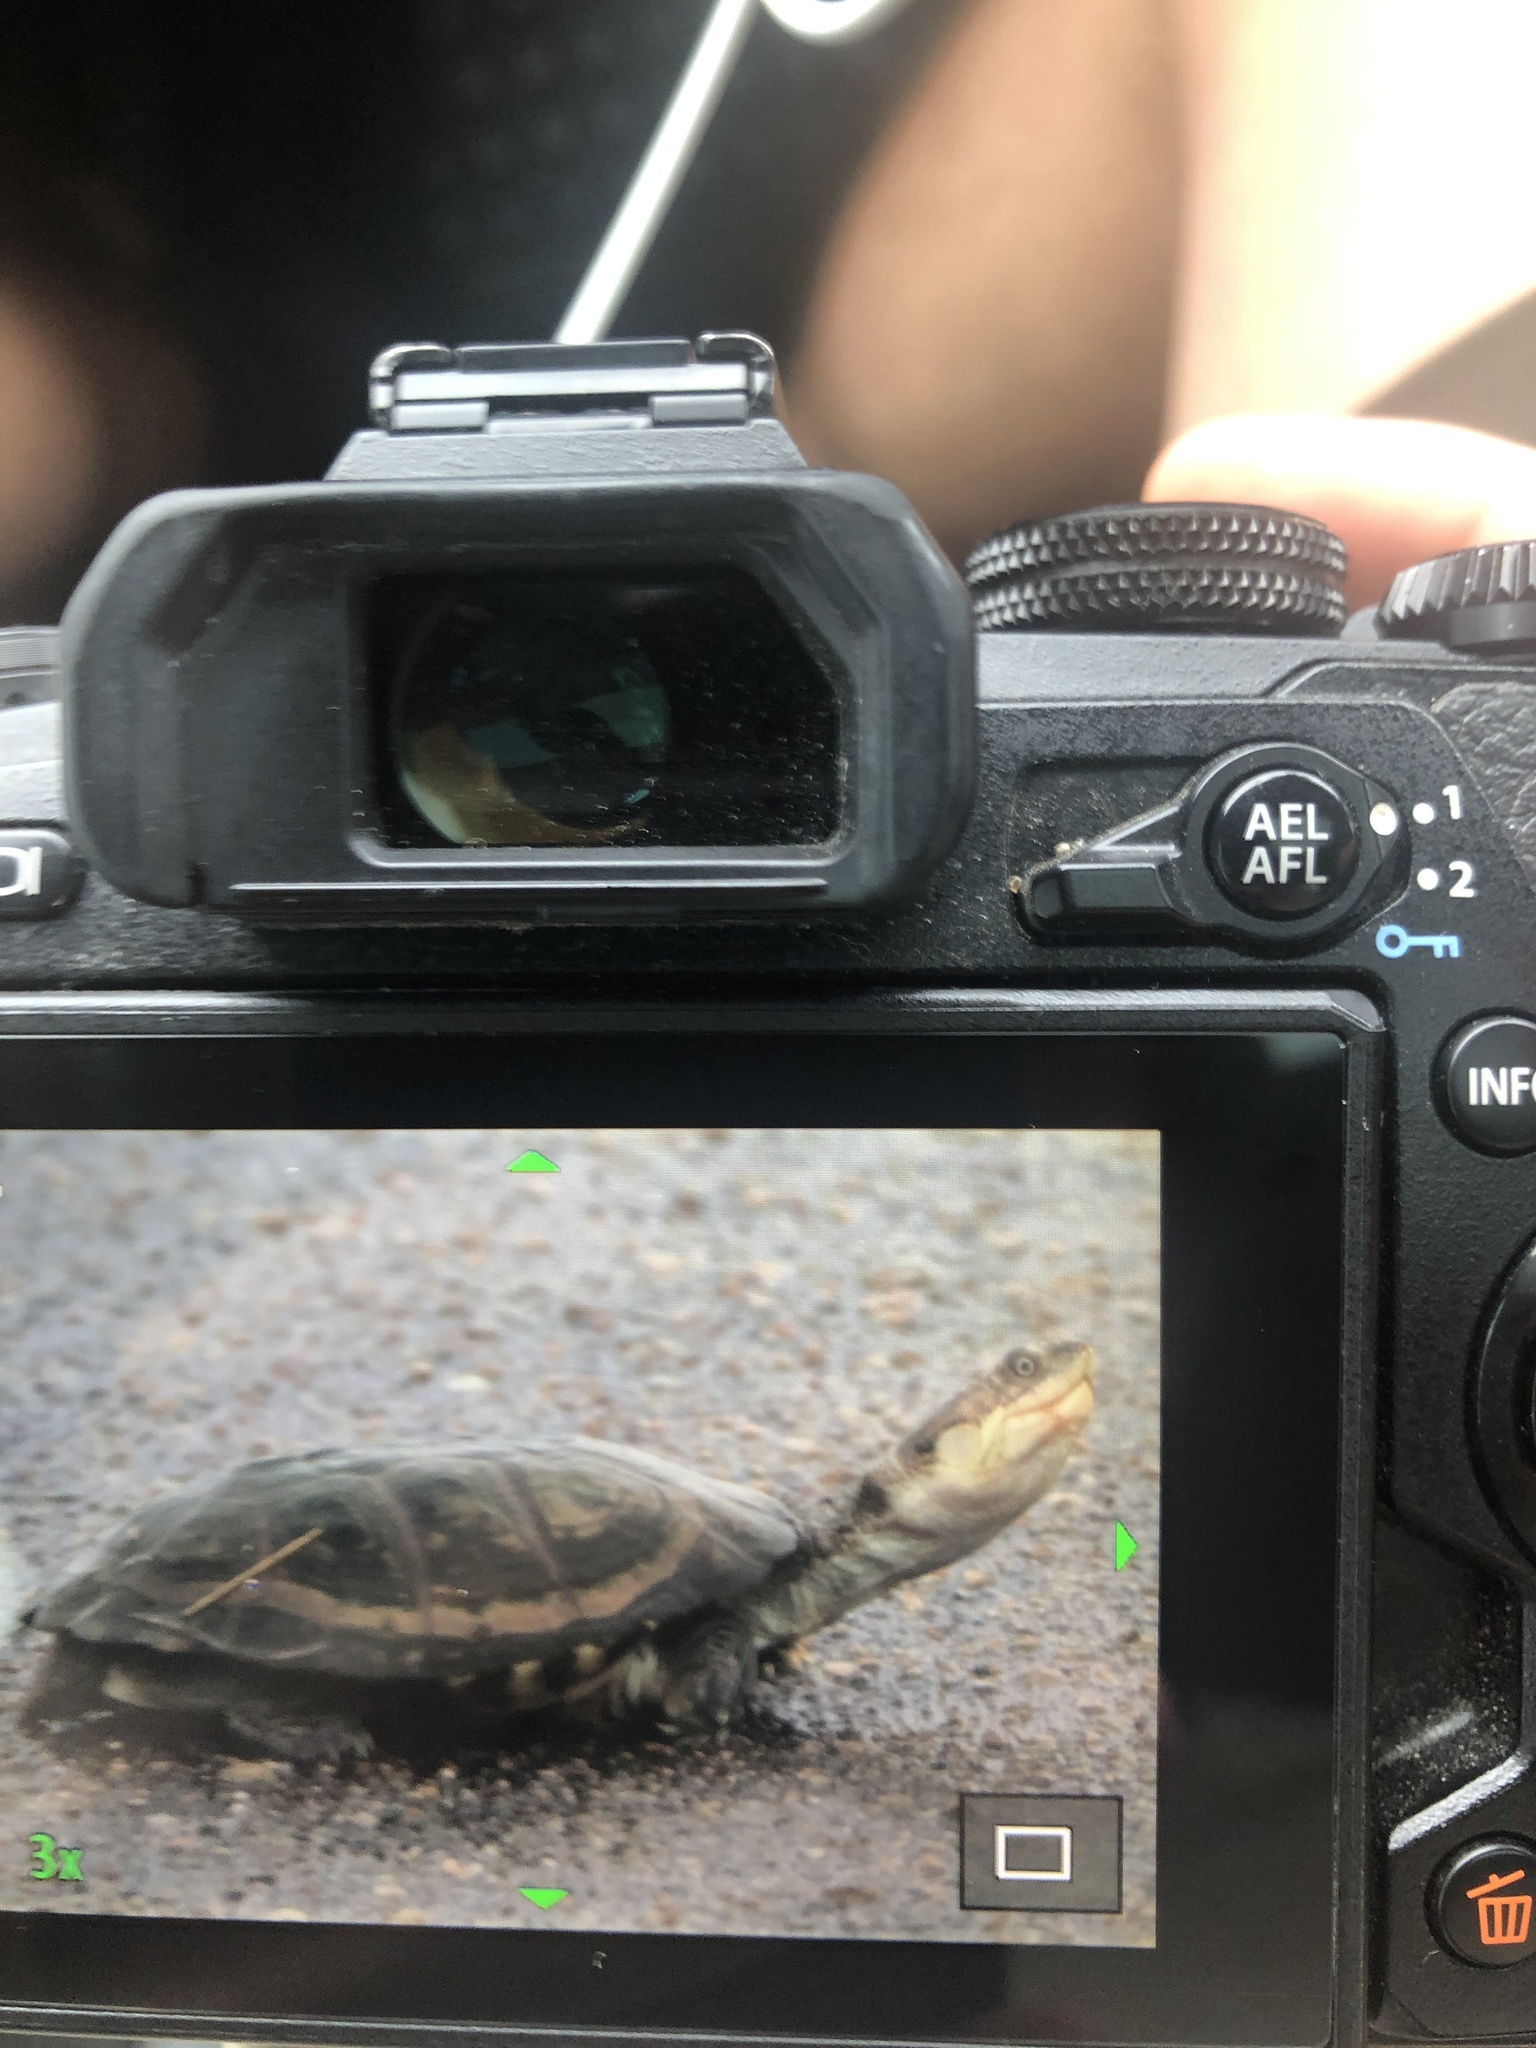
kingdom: Animalia
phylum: Chordata
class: Testudines
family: Pelomedusidae
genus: Pelomedusa
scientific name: Pelomedusa subrufa
